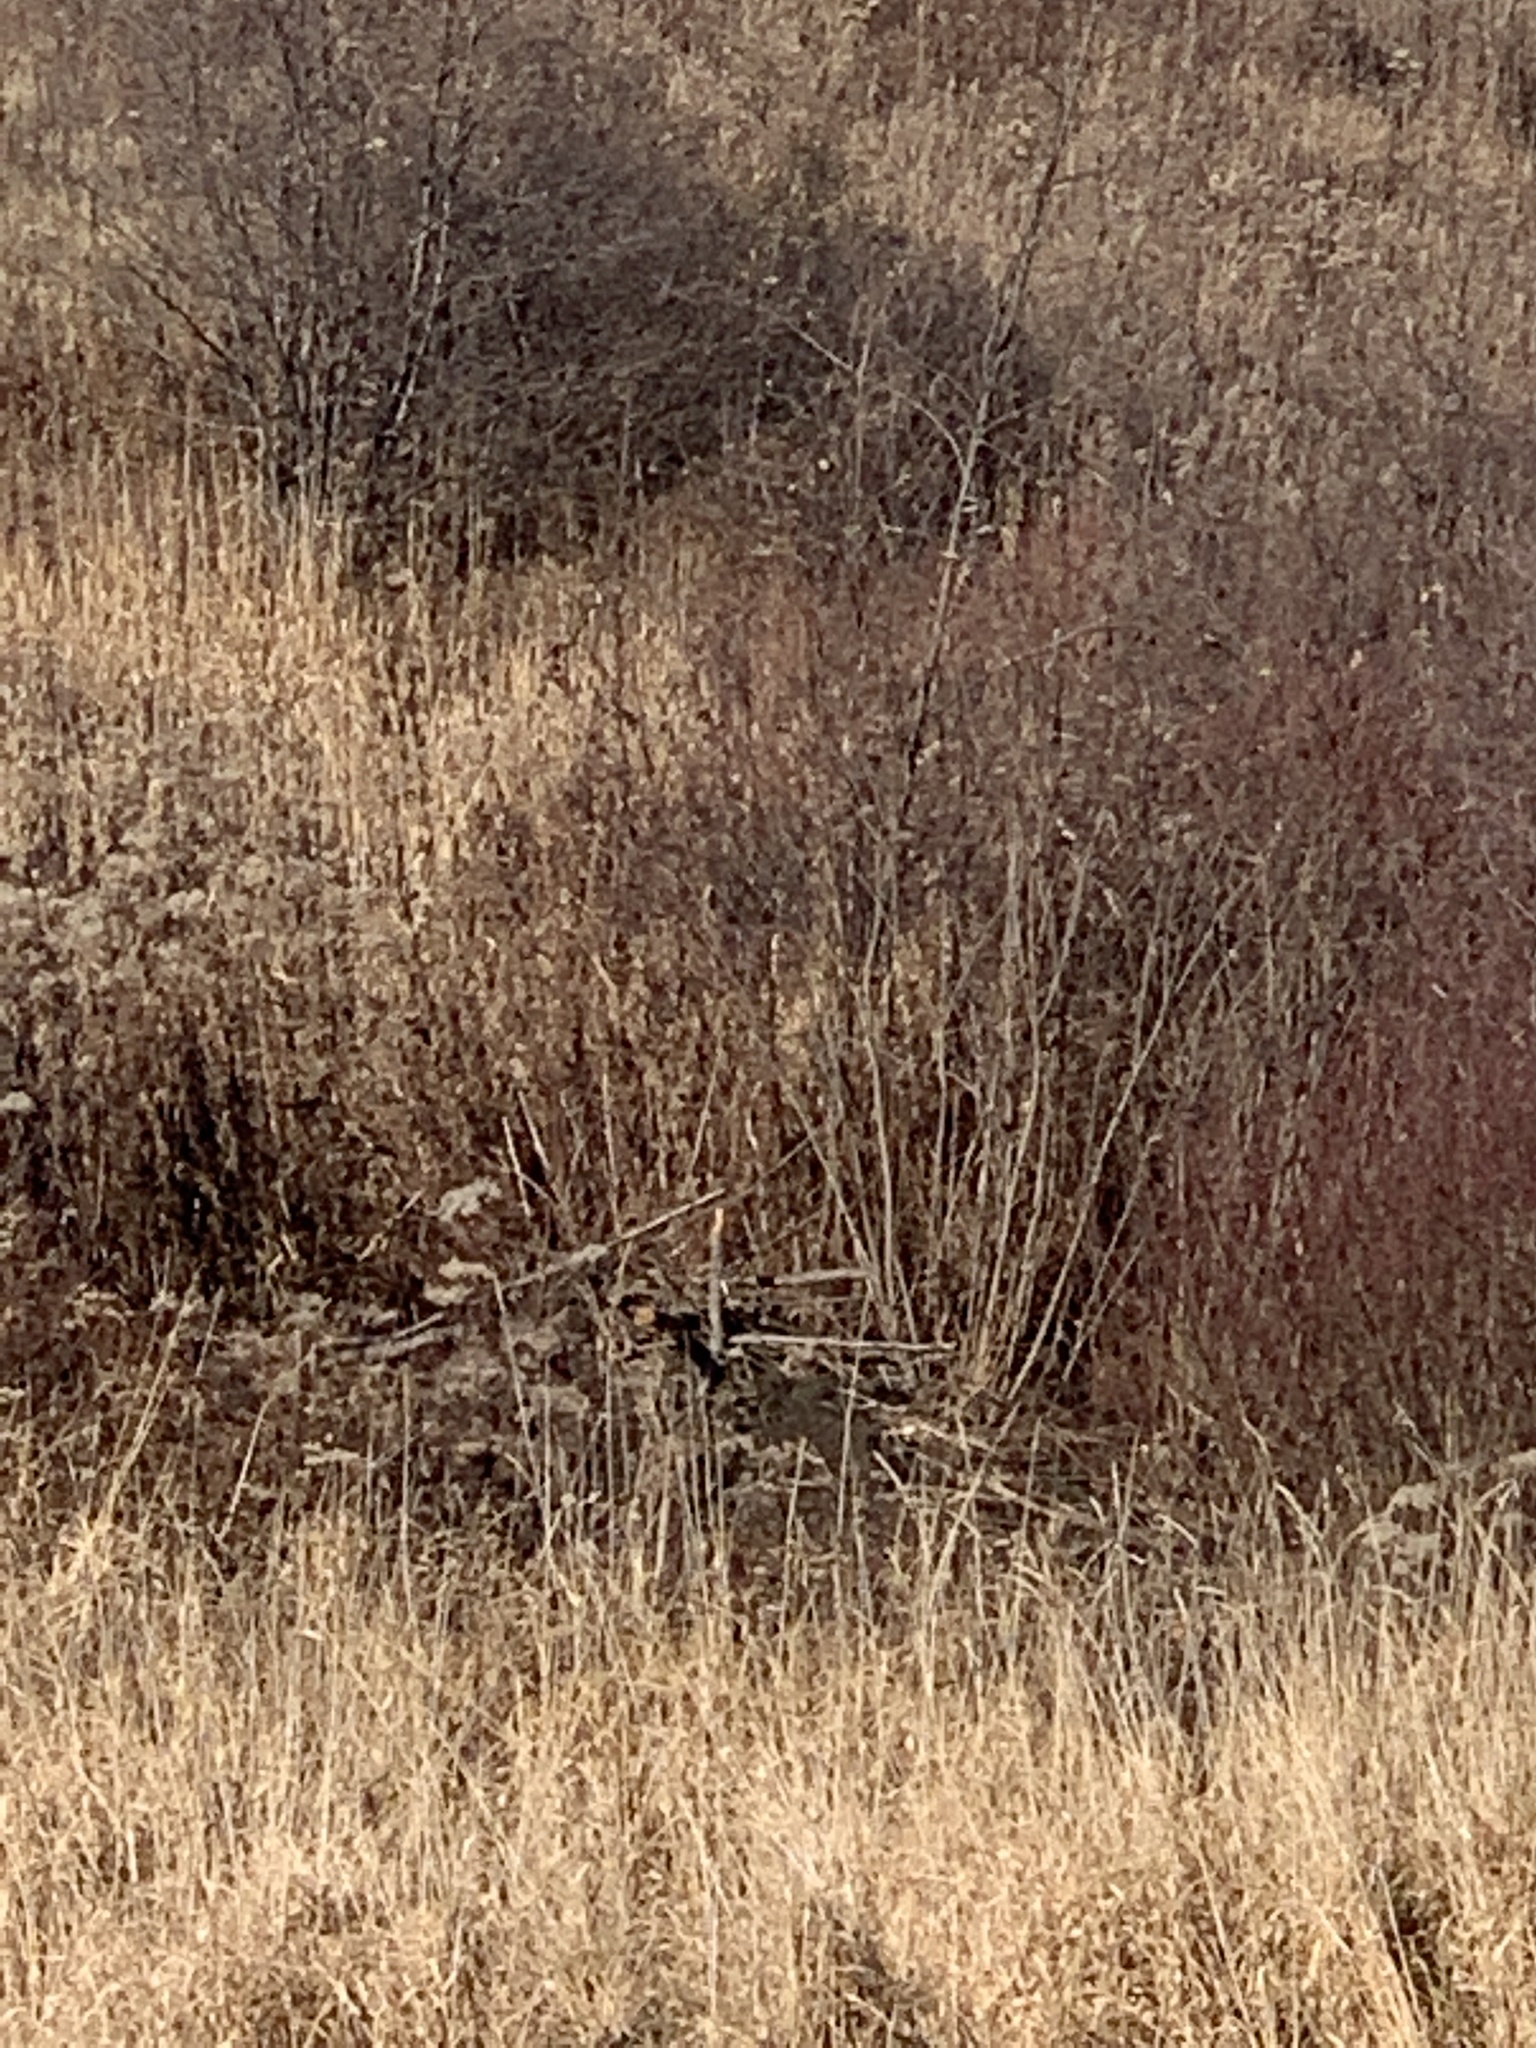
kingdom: Animalia
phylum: Chordata
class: Mammalia
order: Rodentia
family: Castoridae
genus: Castor
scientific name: Castor canadensis
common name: American beaver
